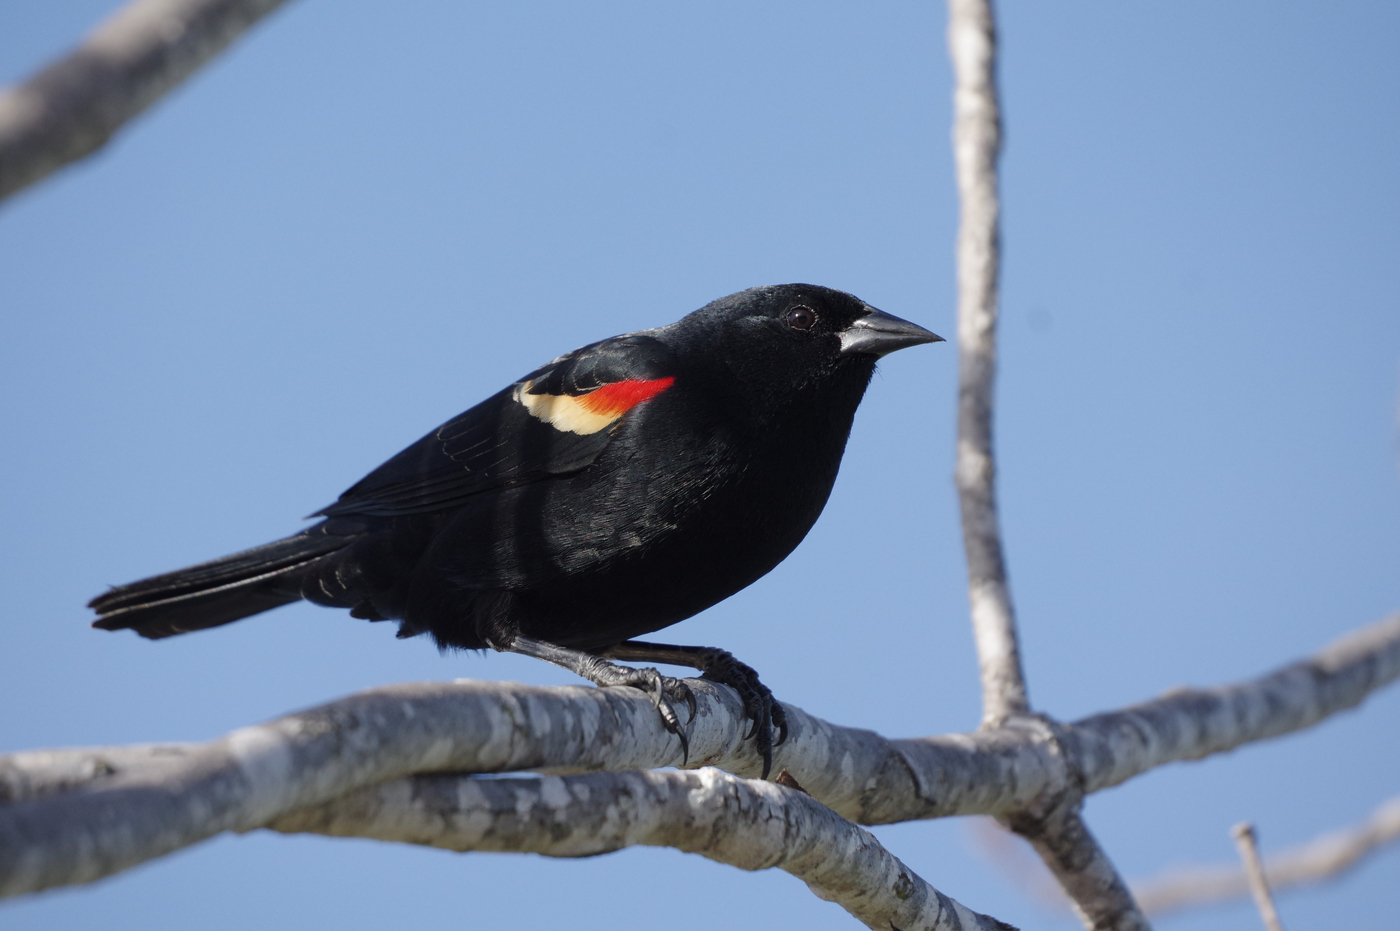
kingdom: Animalia
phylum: Chordata
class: Aves
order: Passeriformes
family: Icteridae
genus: Agelaius
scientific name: Agelaius phoeniceus
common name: Red-winged blackbird
